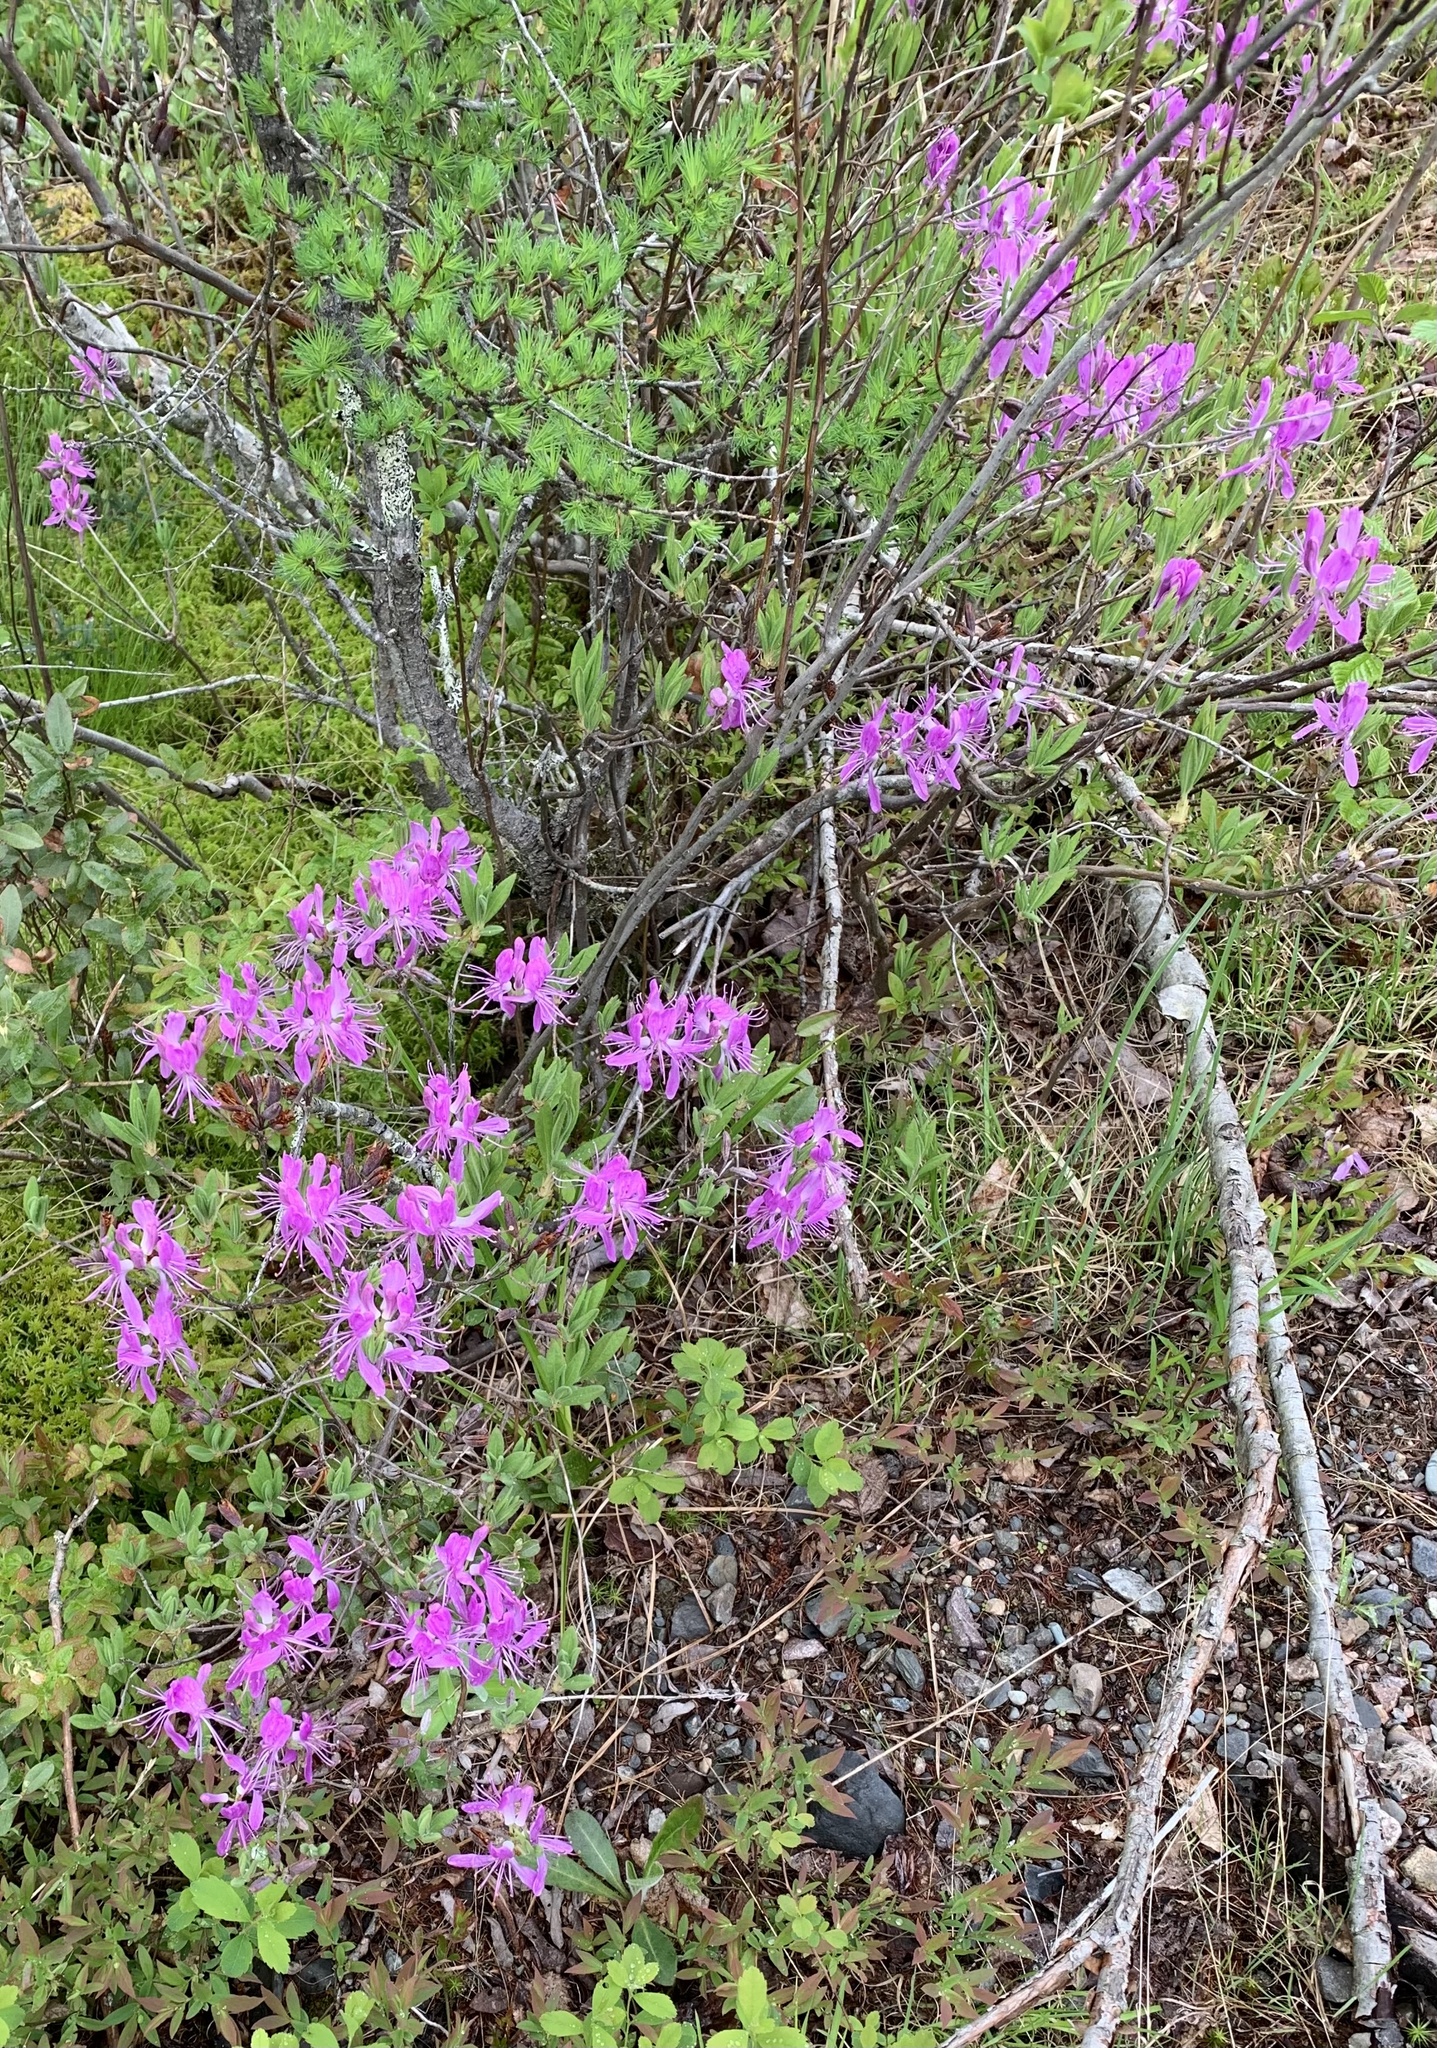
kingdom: Plantae
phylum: Tracheophyta
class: Magnoliopsida
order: Ericales
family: Ericaceae
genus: Rhododendron
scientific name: Rhododendron canadense
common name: Rhodora
